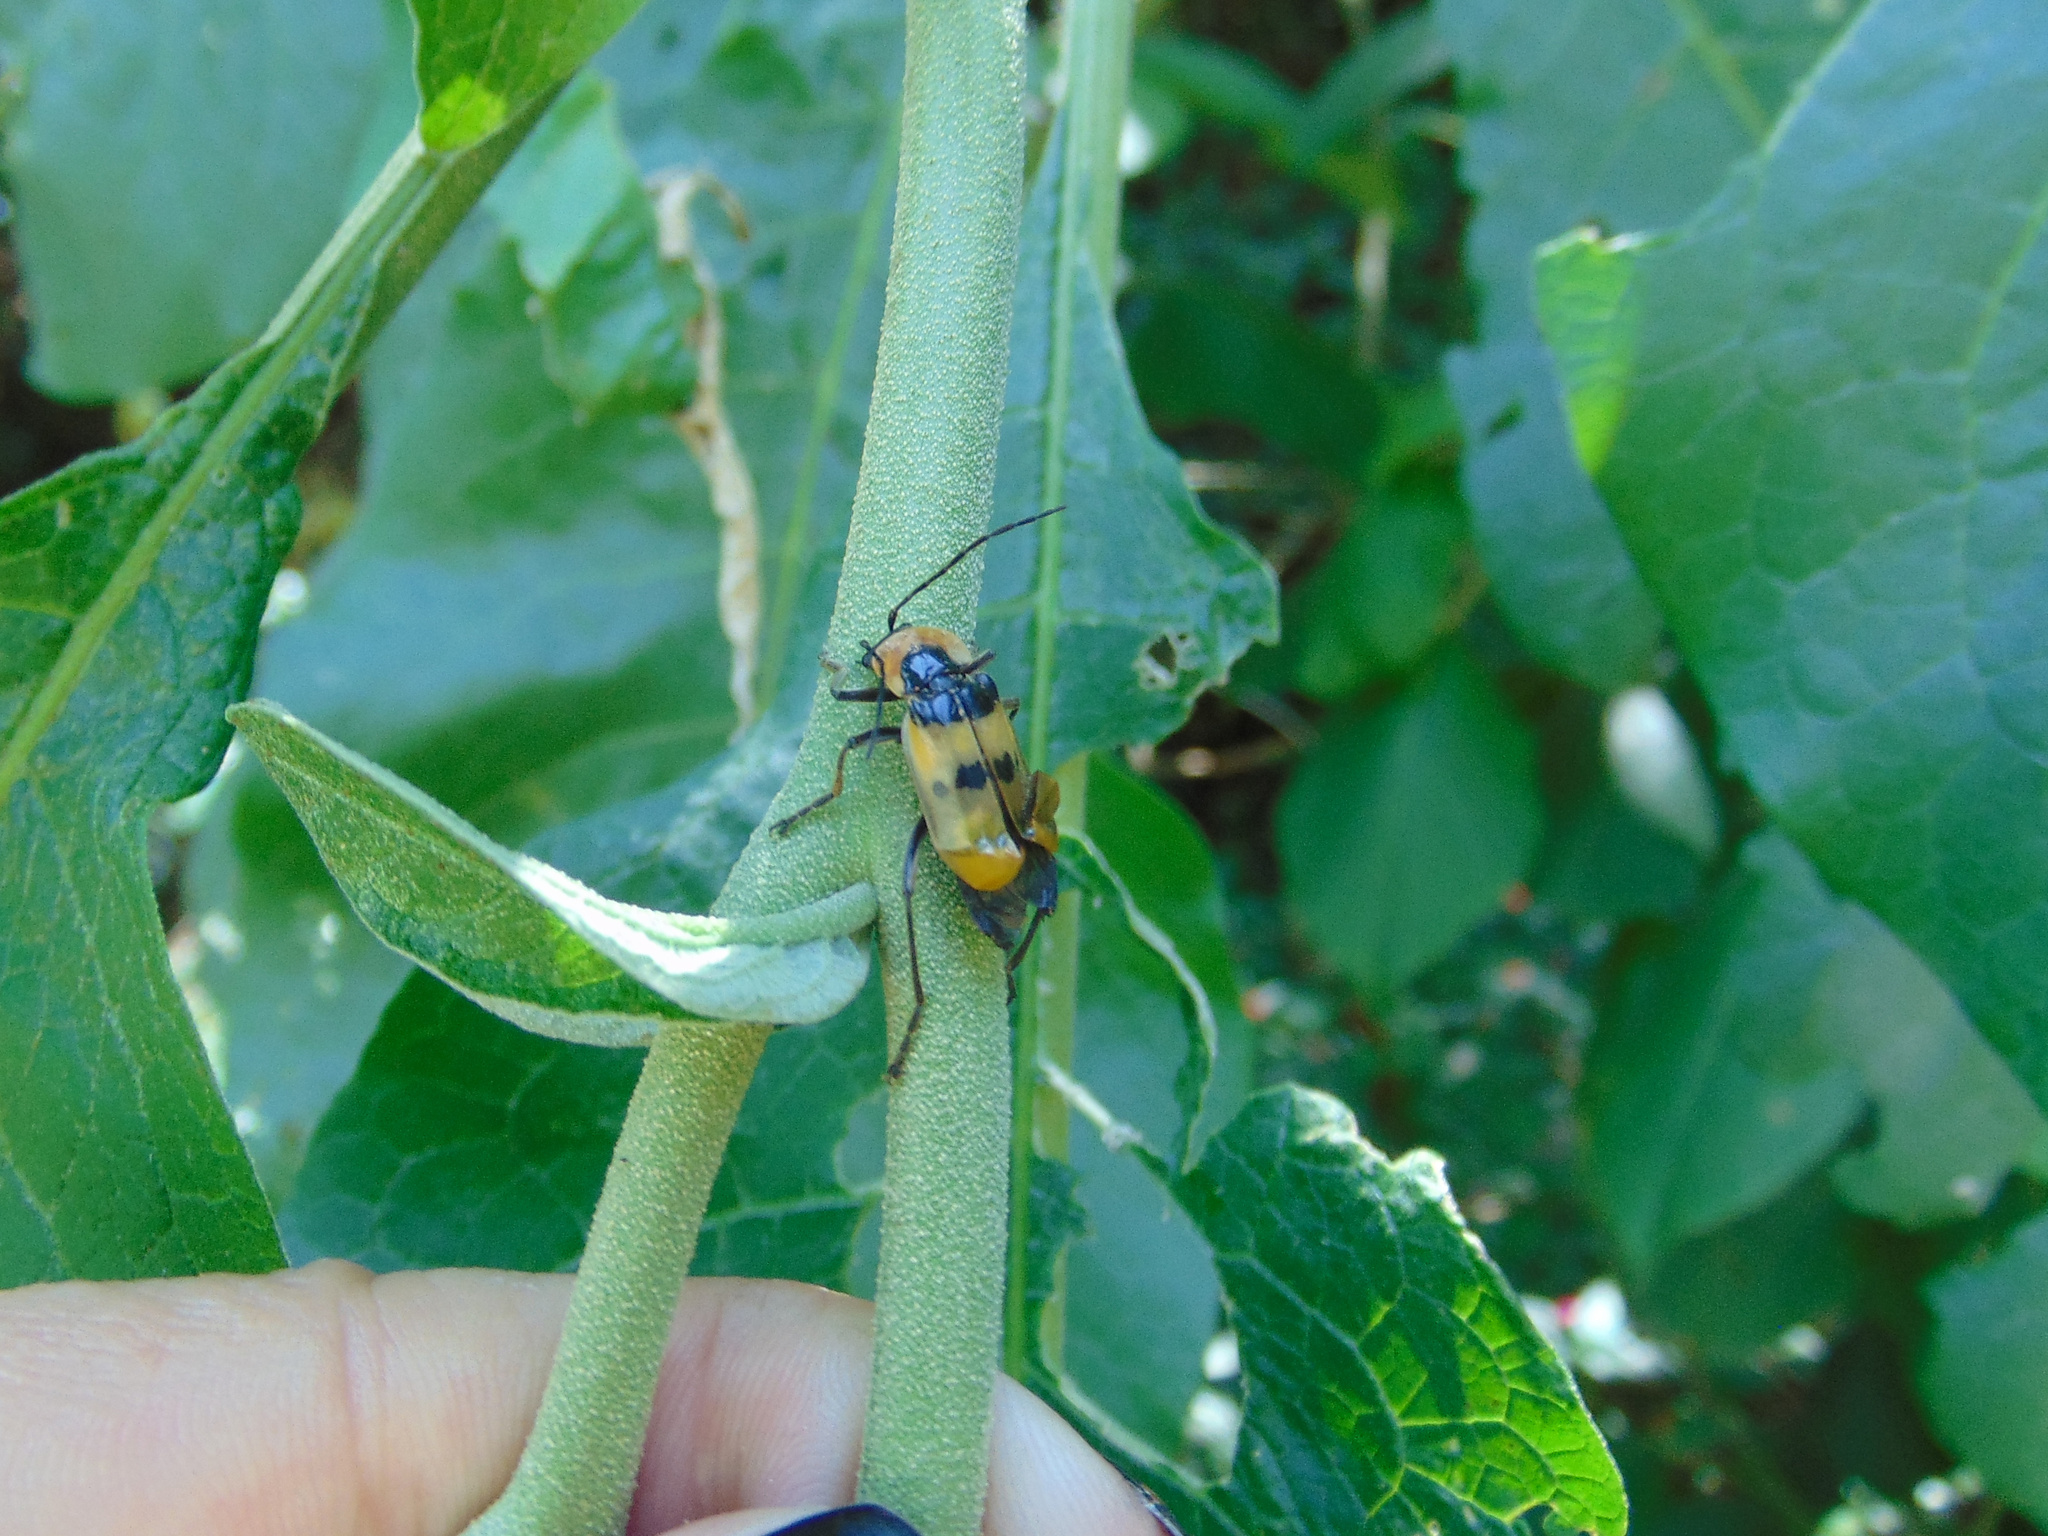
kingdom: Animalia
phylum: Arthropoda
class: Insecta
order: Coleoptera
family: Cantharidae
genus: Chauliognathus
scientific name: Chauliognathus
